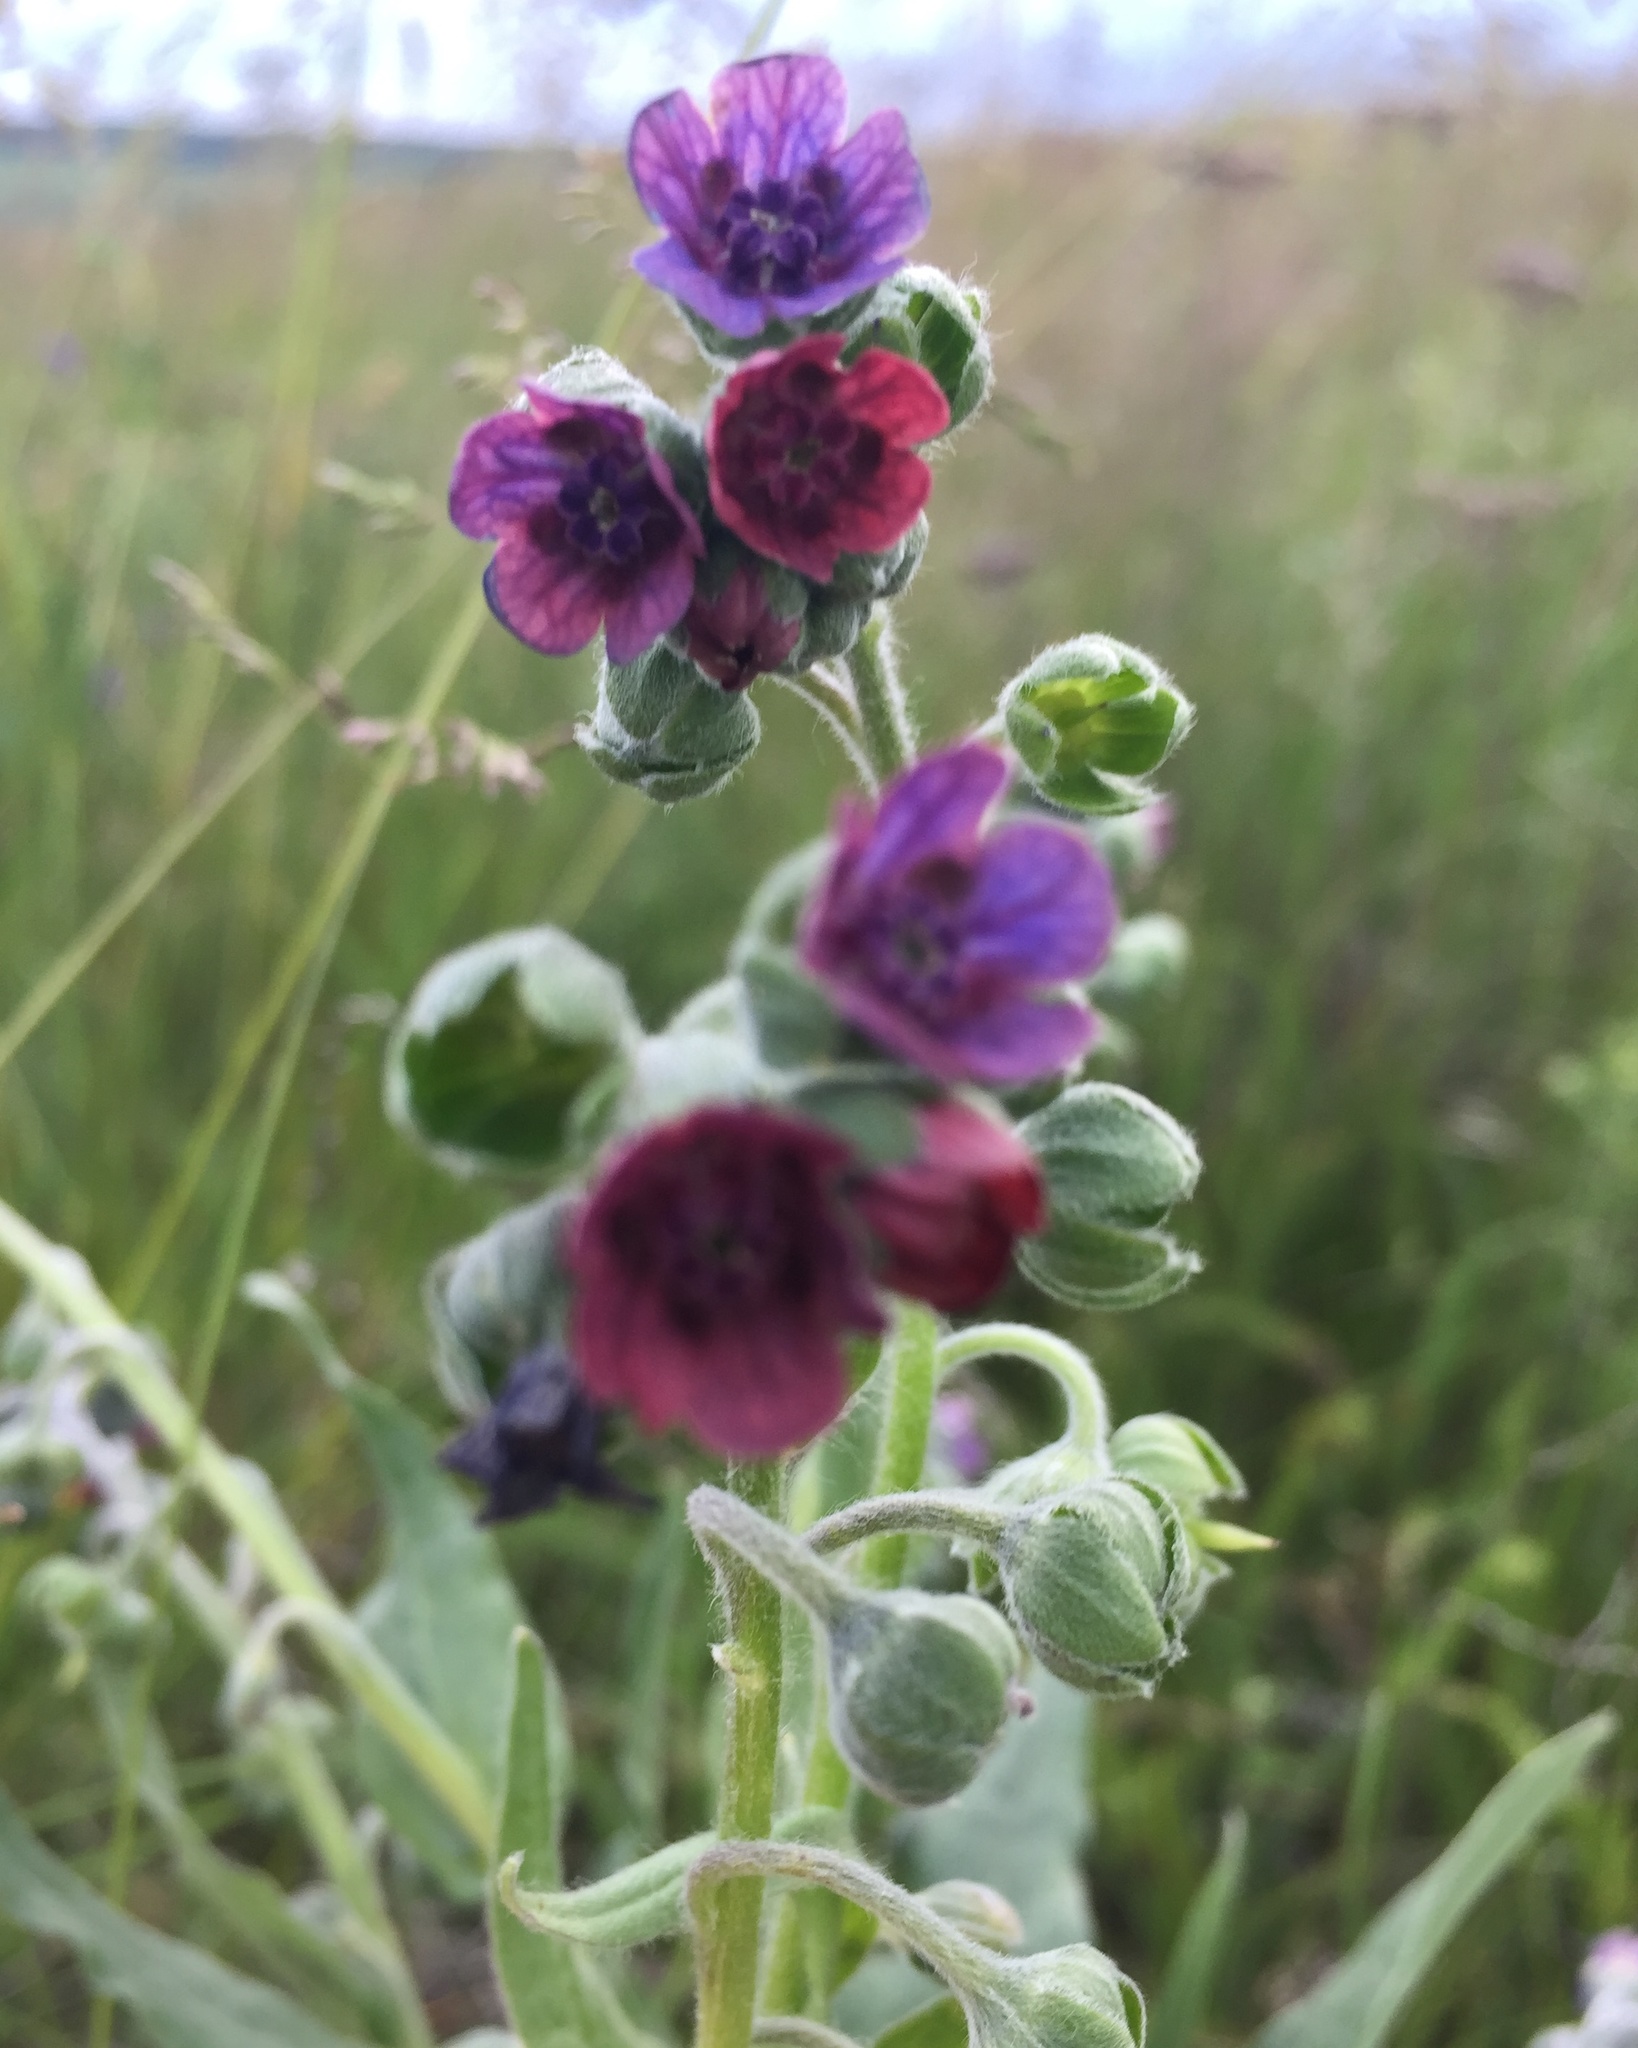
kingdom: Plantae
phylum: Tracheophyta
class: Magnoliopsida
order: Boraginales
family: Boraginaceae
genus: Cynoglossum
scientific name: Cynoglossum officinale
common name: Hound's-tongue
